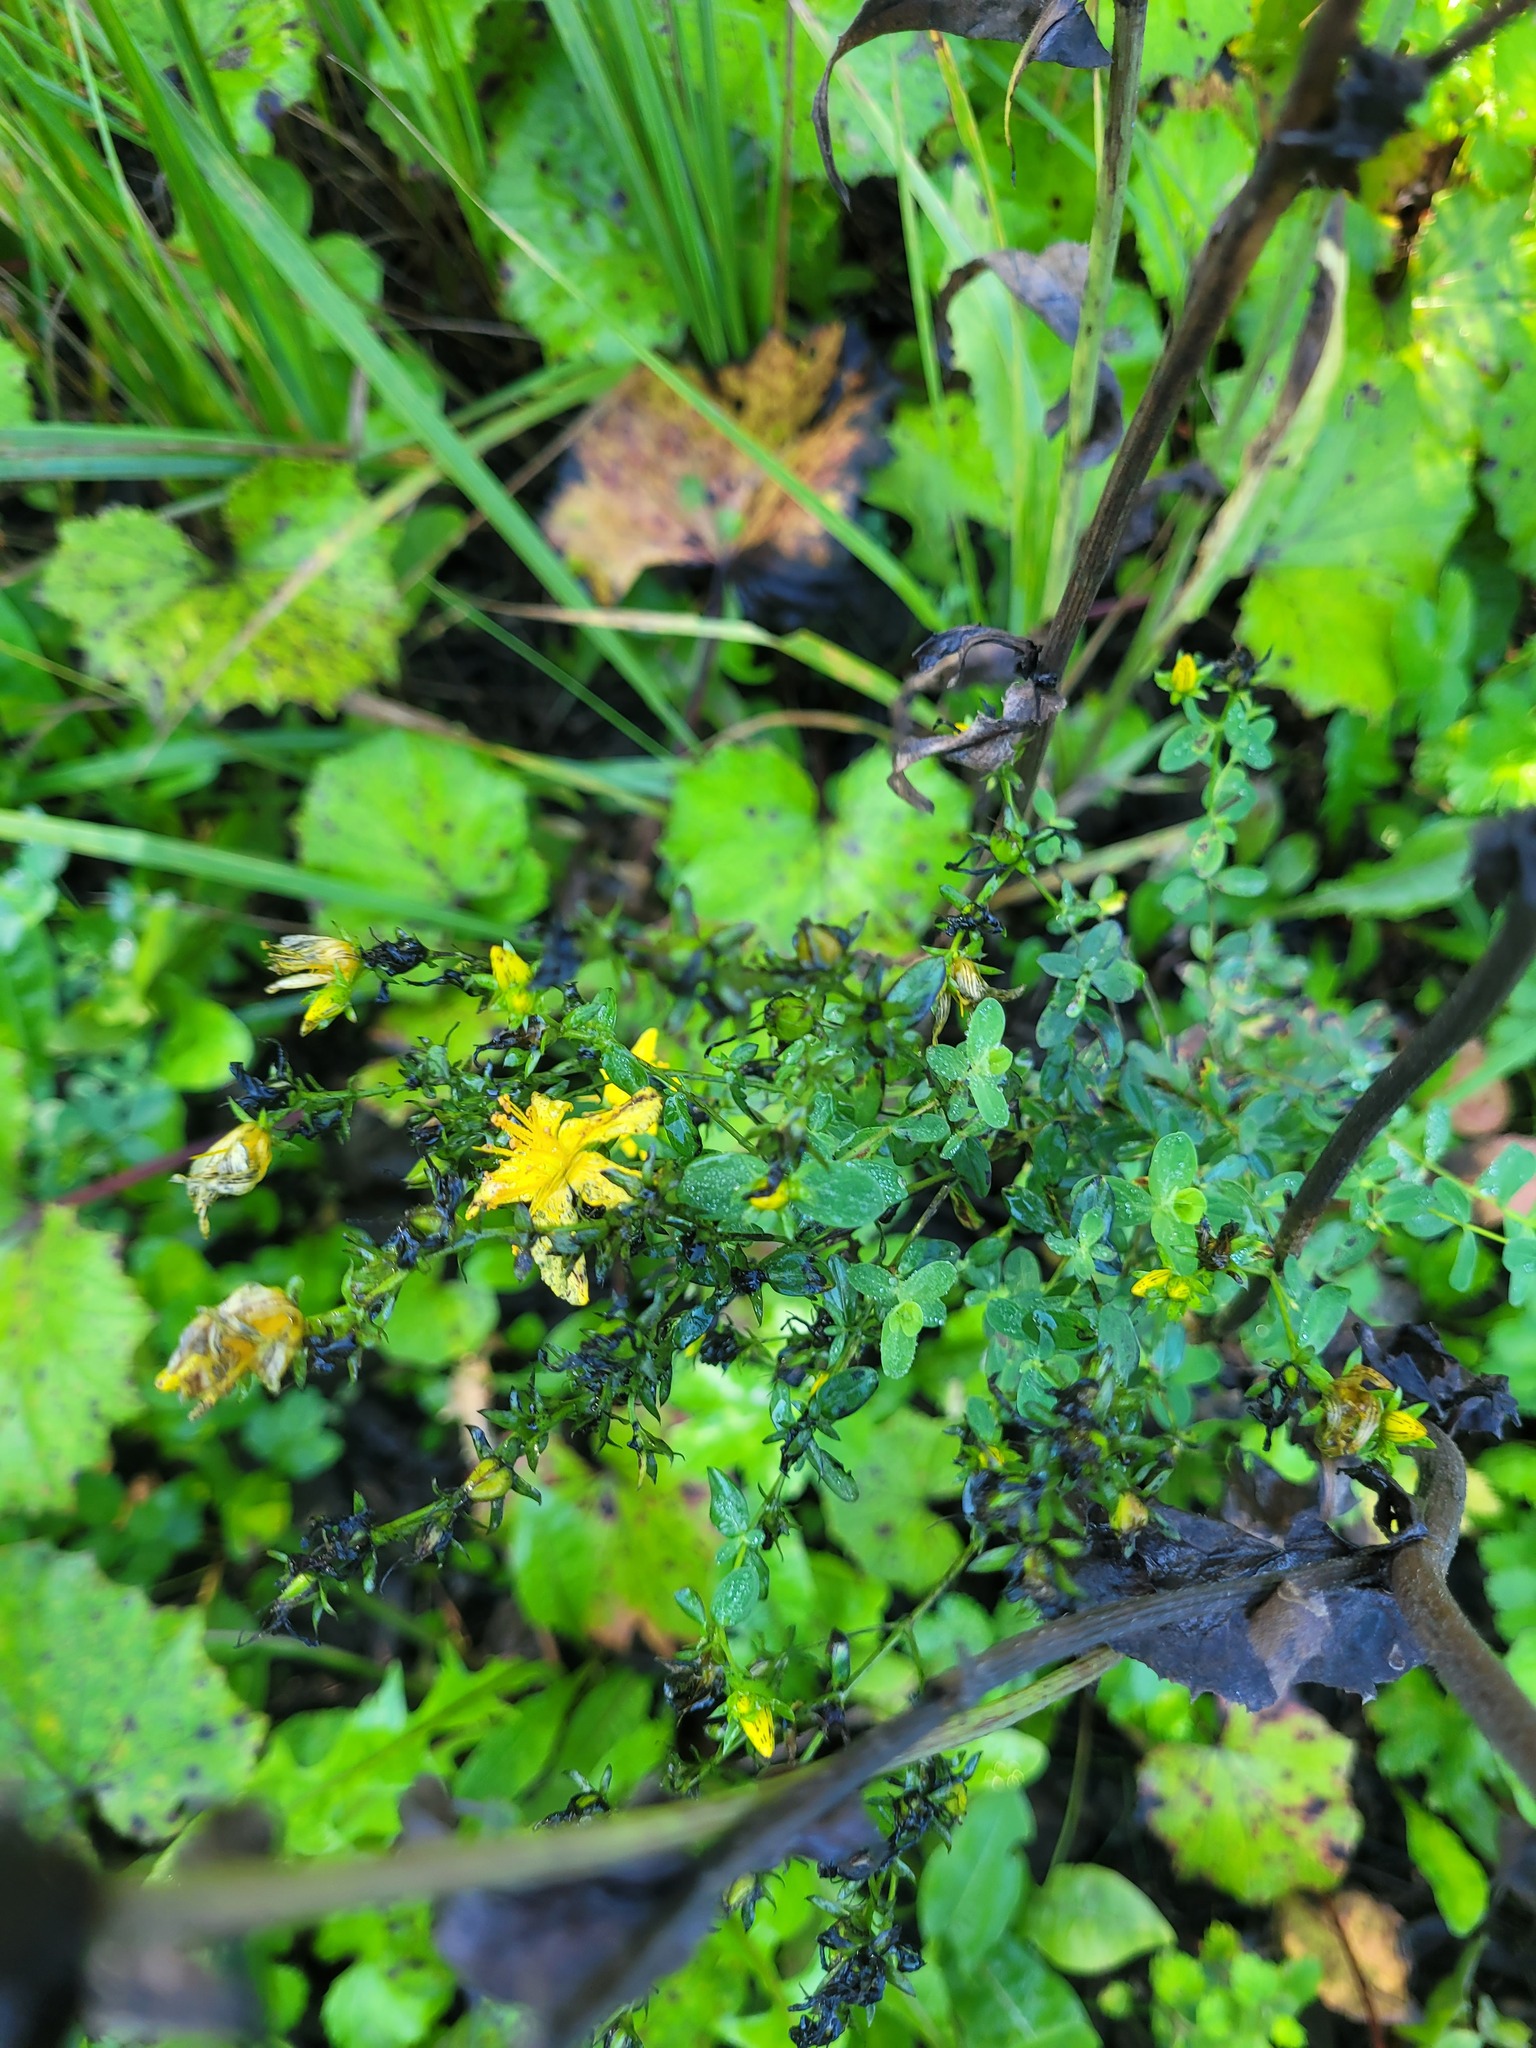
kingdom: Plantae
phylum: Tracheophyta
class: Magnoliopsida
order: Malpighiales
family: Hypericaceae
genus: Hypericum
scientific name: Hypericum perforatum
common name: Common st. johnswort
